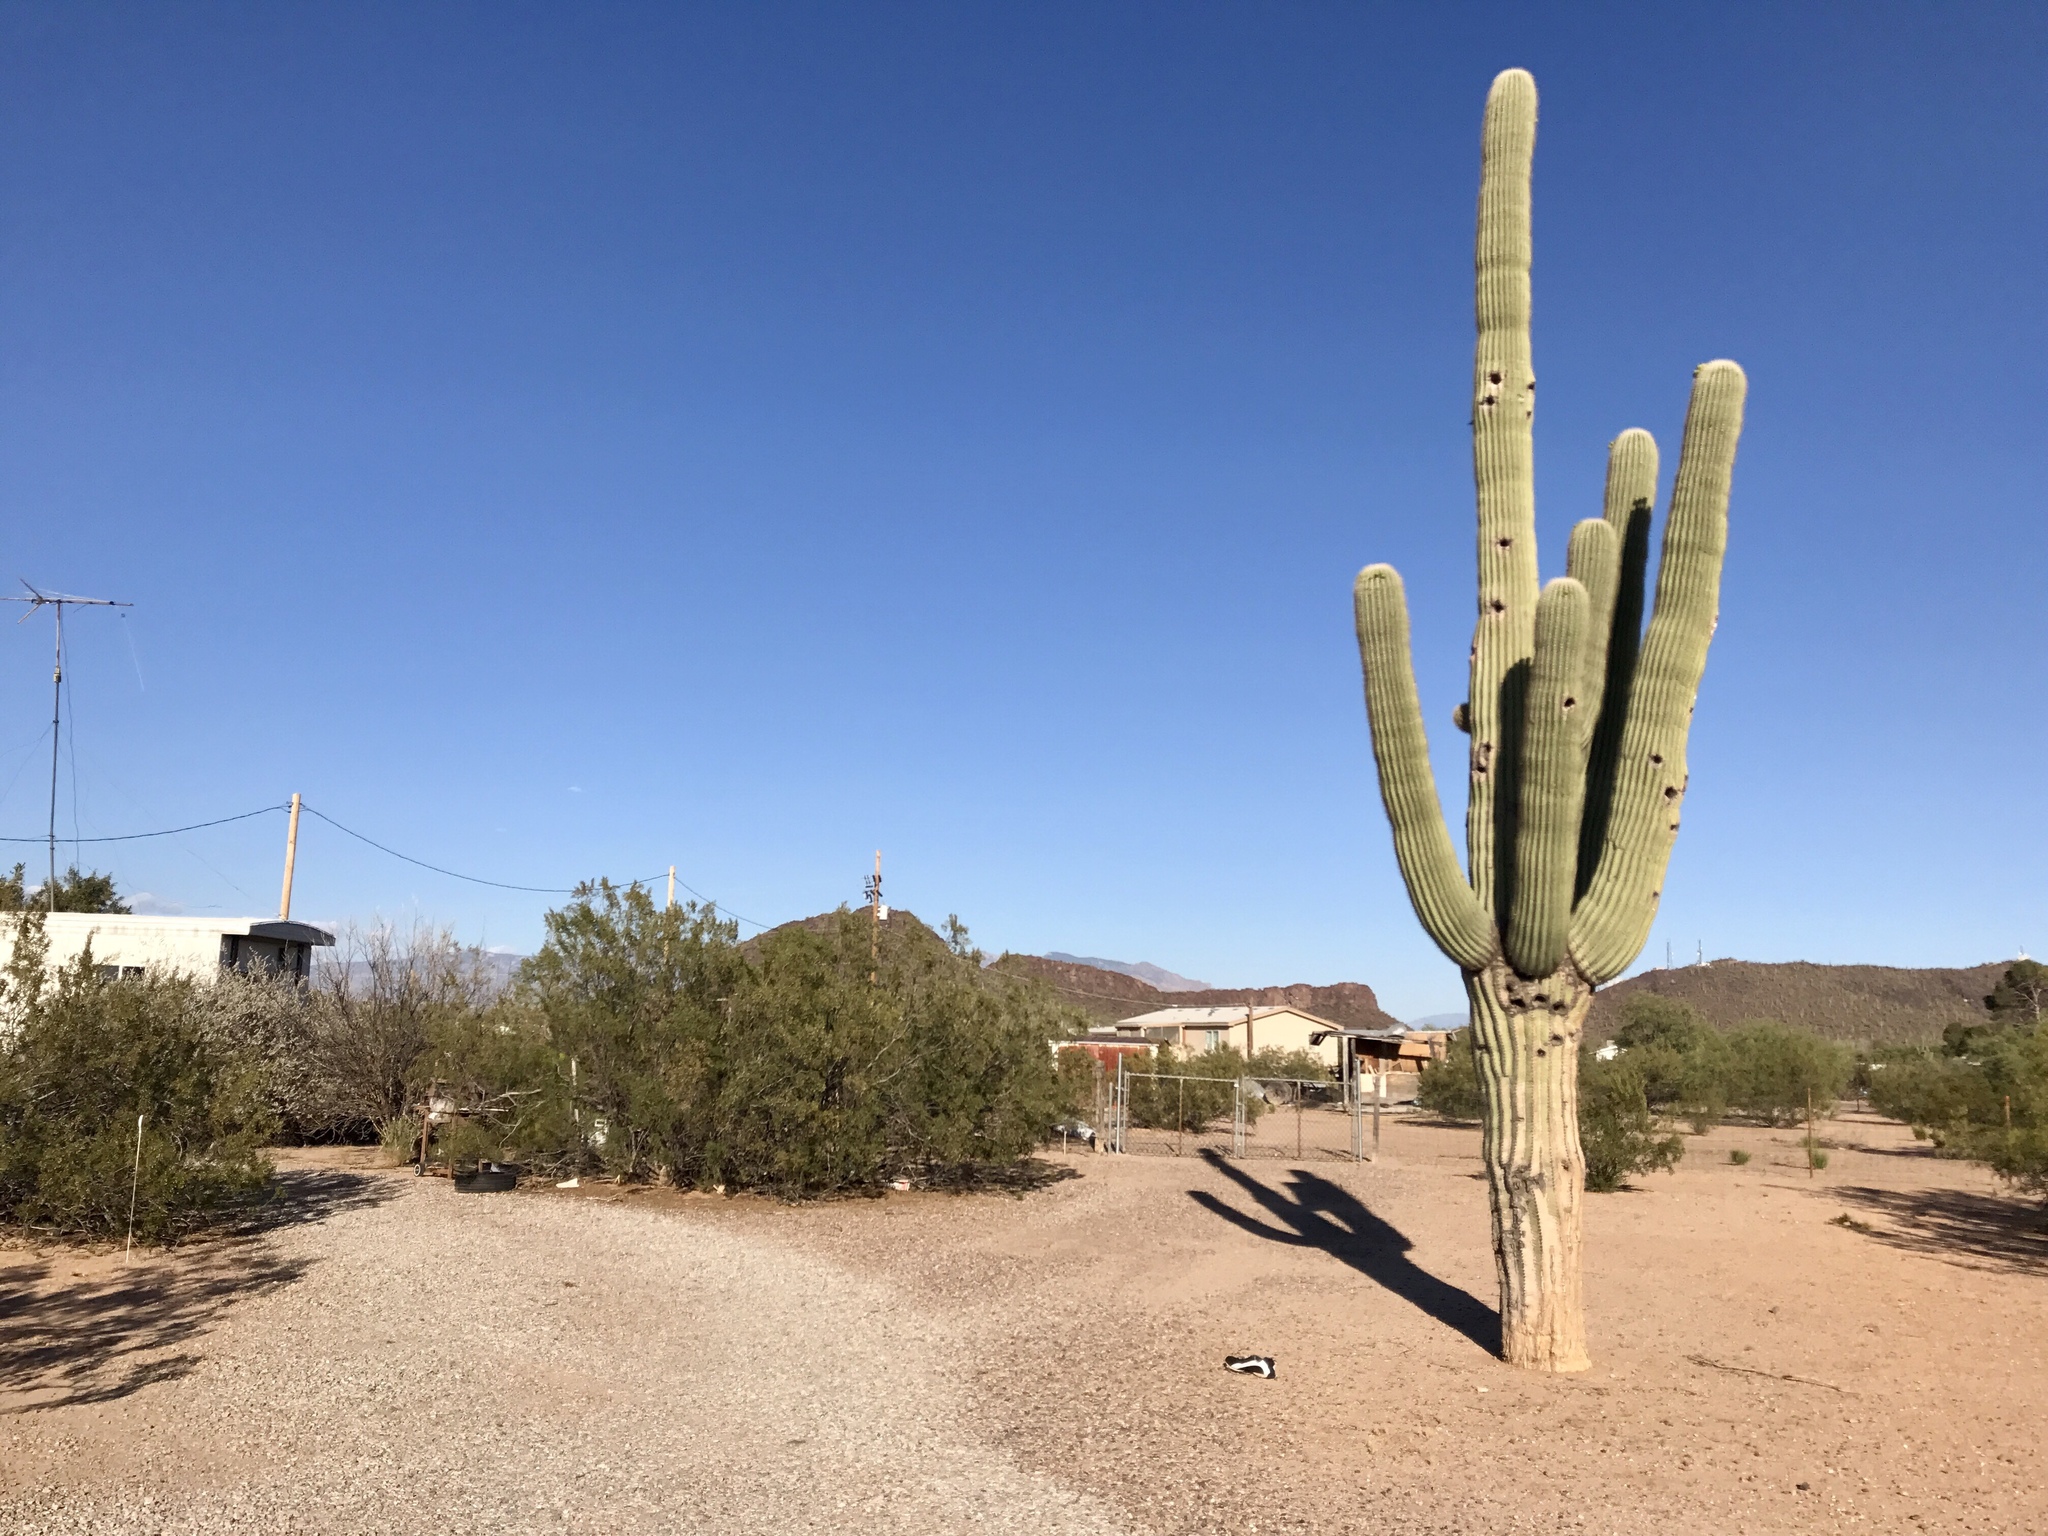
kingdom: Plantae
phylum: Tracheophyta
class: Magnoliopsida
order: Caryophyllales
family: Cactaceae
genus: Carnegiea
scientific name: Carnegiea gigantea
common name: Saguaro
